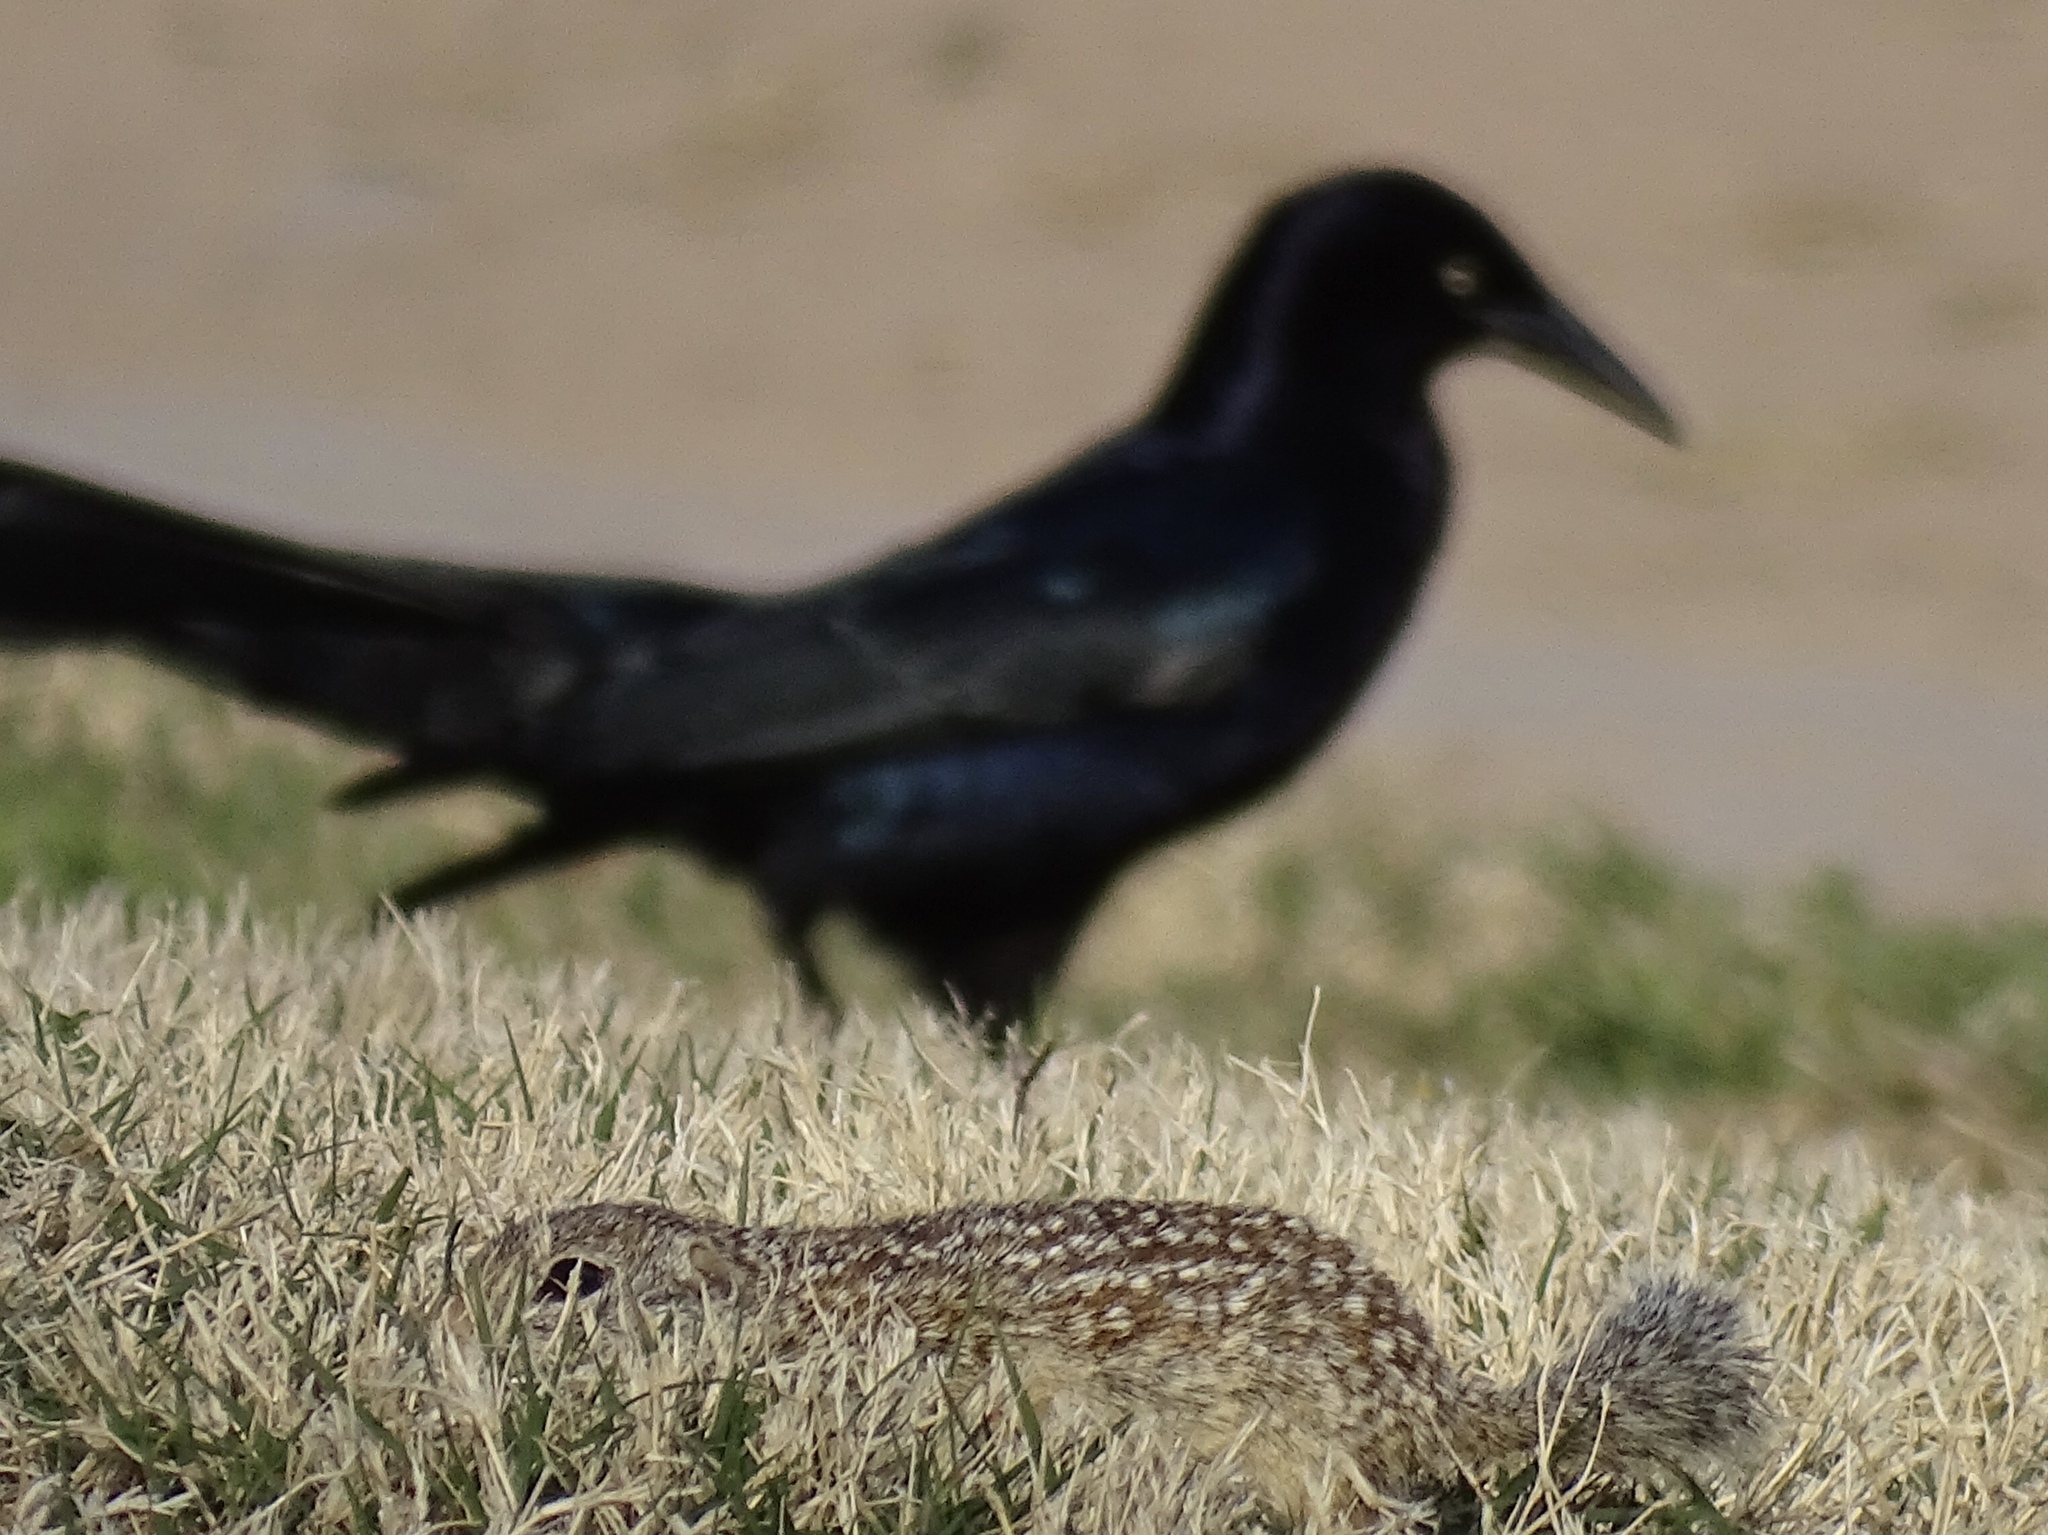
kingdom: Animalia
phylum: Chordata
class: Aves
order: Passeriformes
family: Icteridae
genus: Quiscalus
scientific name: Quiscalus mexicanus
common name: Great-tailed grackle
